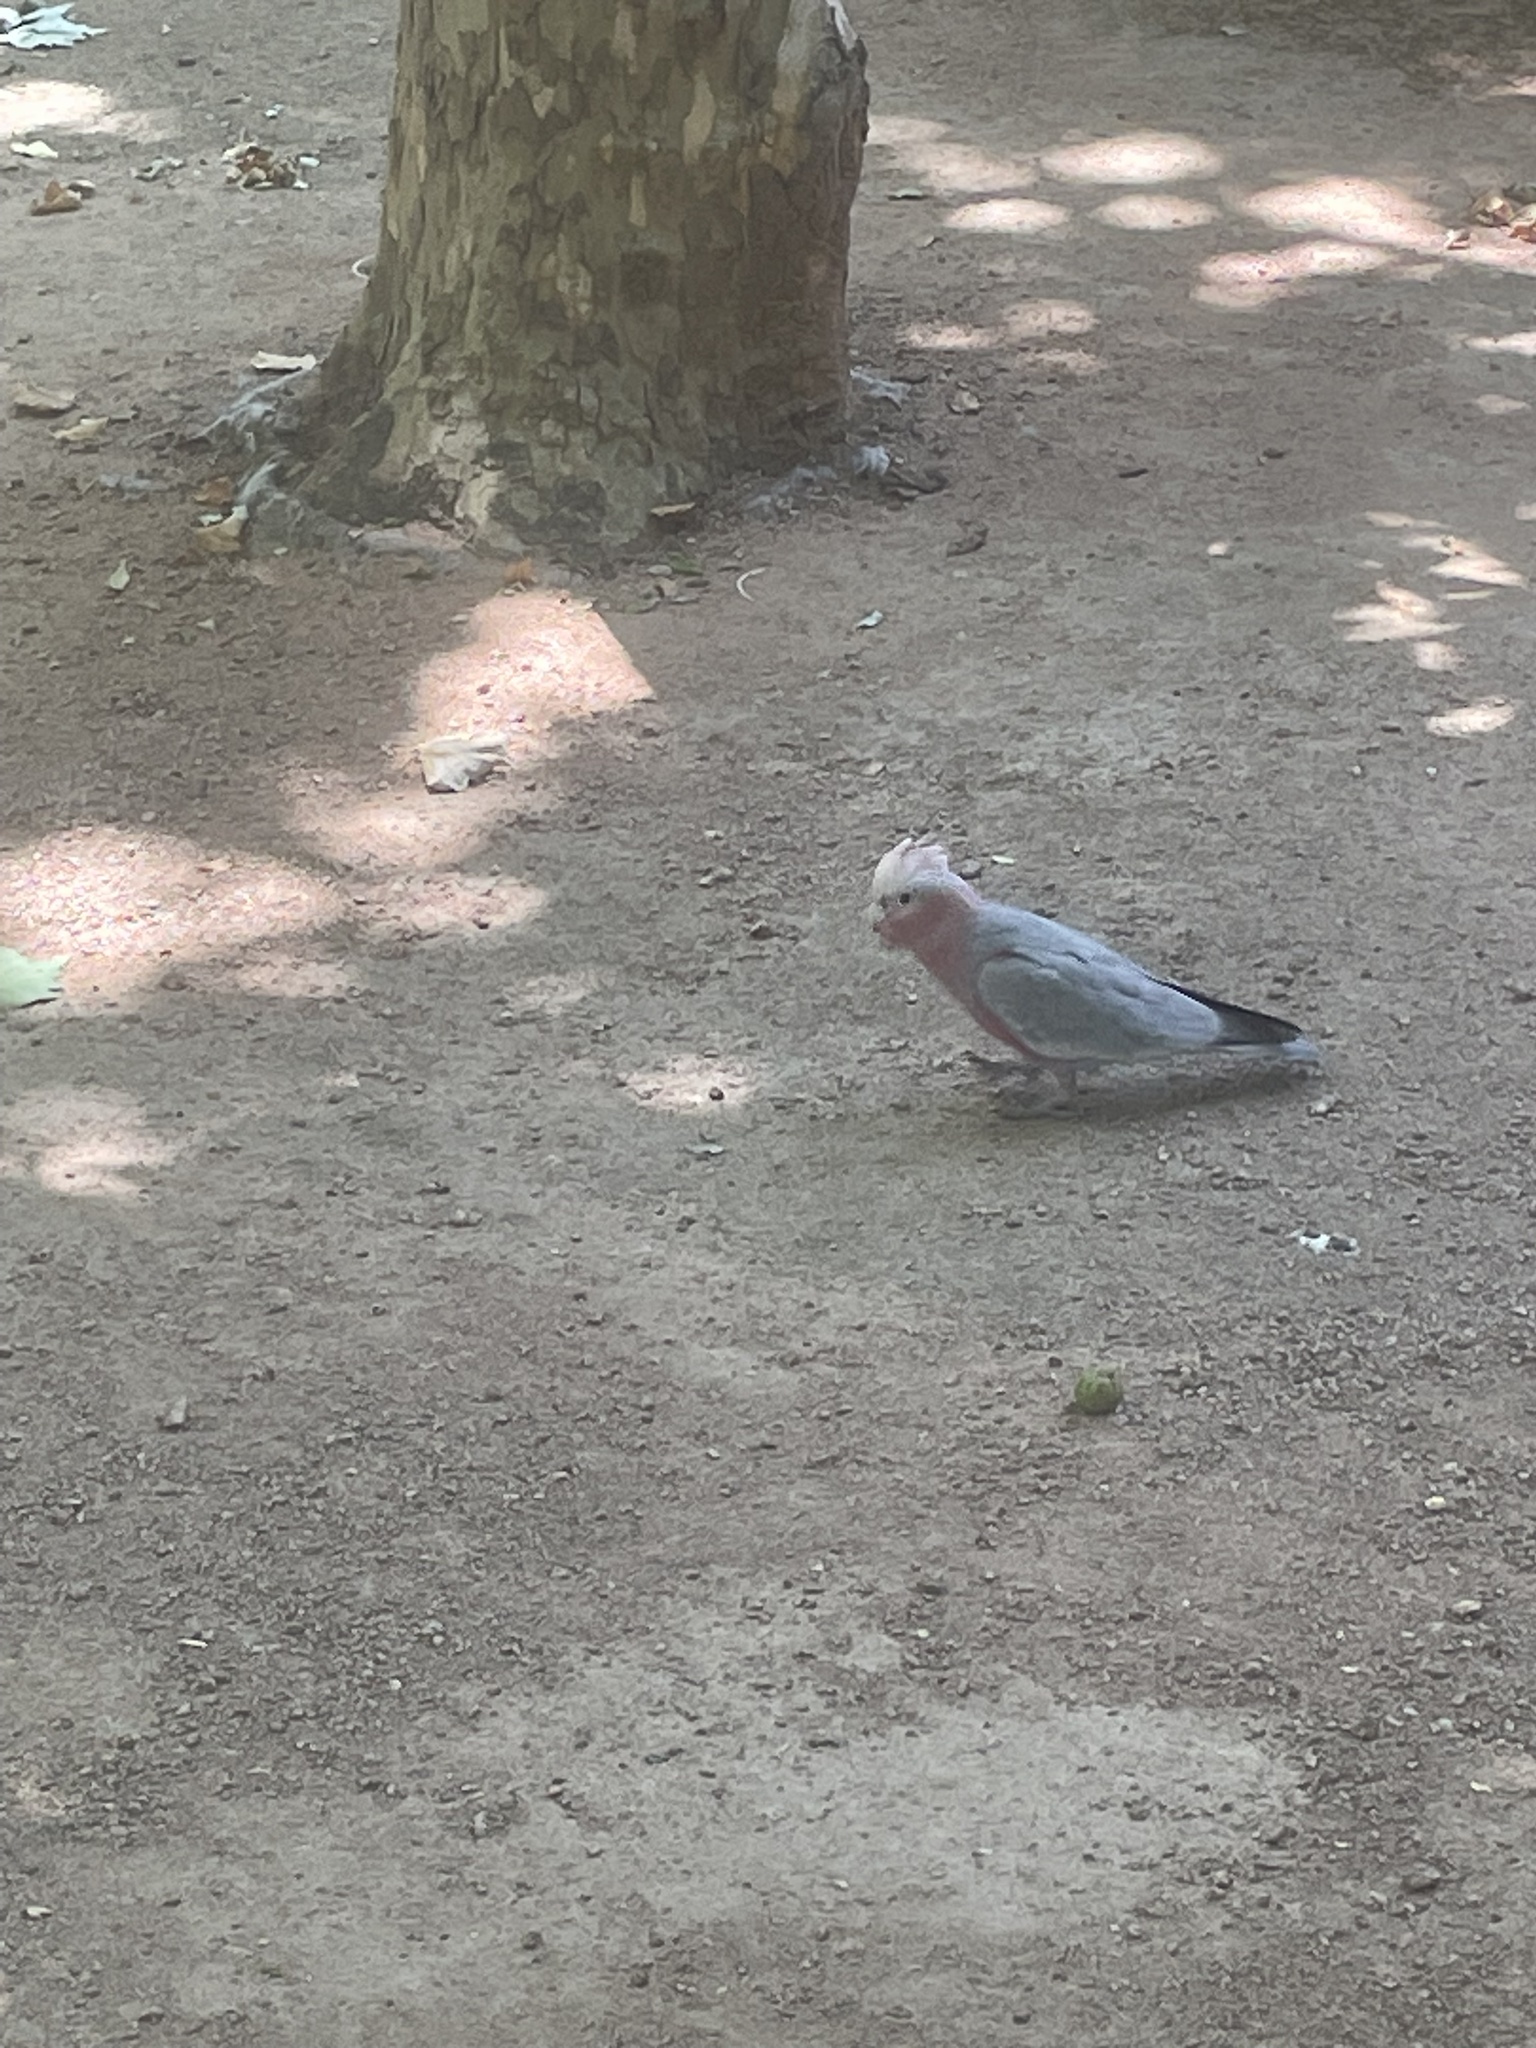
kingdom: Animalia
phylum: Chordata
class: Aves
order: Psittaciformes
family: Psittacidae
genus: Eolophus
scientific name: Eolophus roseicapilla
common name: Galah
